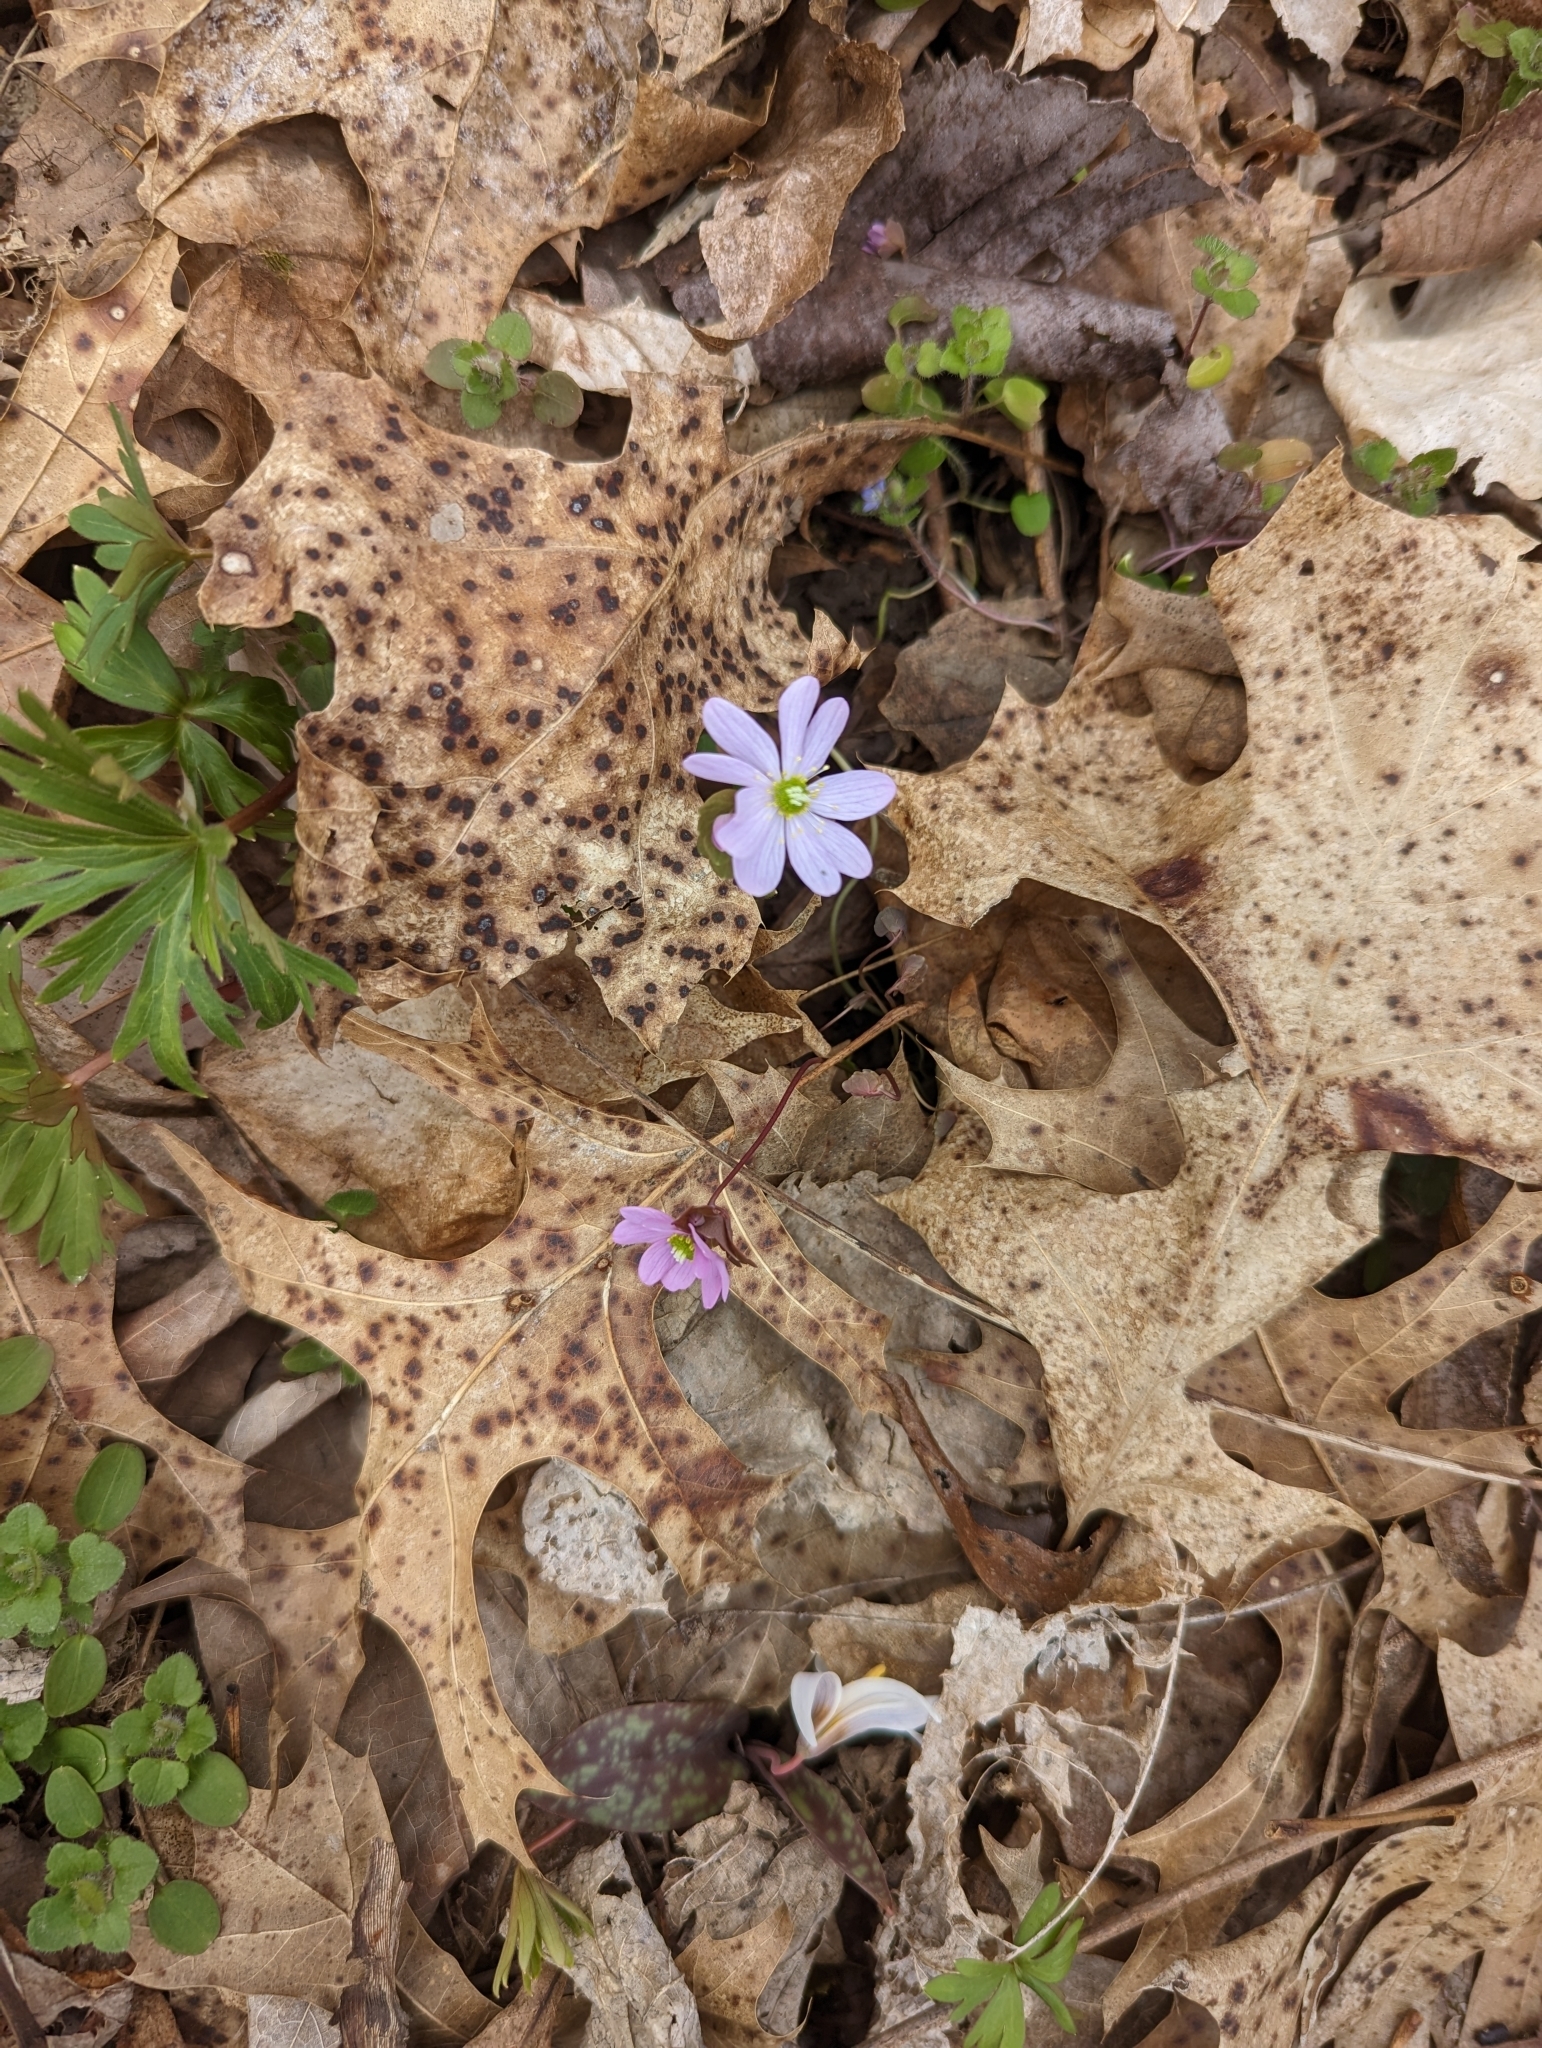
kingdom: Plantae
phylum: Tracheophyta
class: Magnoliopsida
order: Ranunculales
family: Ranunculaceae
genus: Thalictrum
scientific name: Thalictrum thalictroides
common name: Rue-anemone
